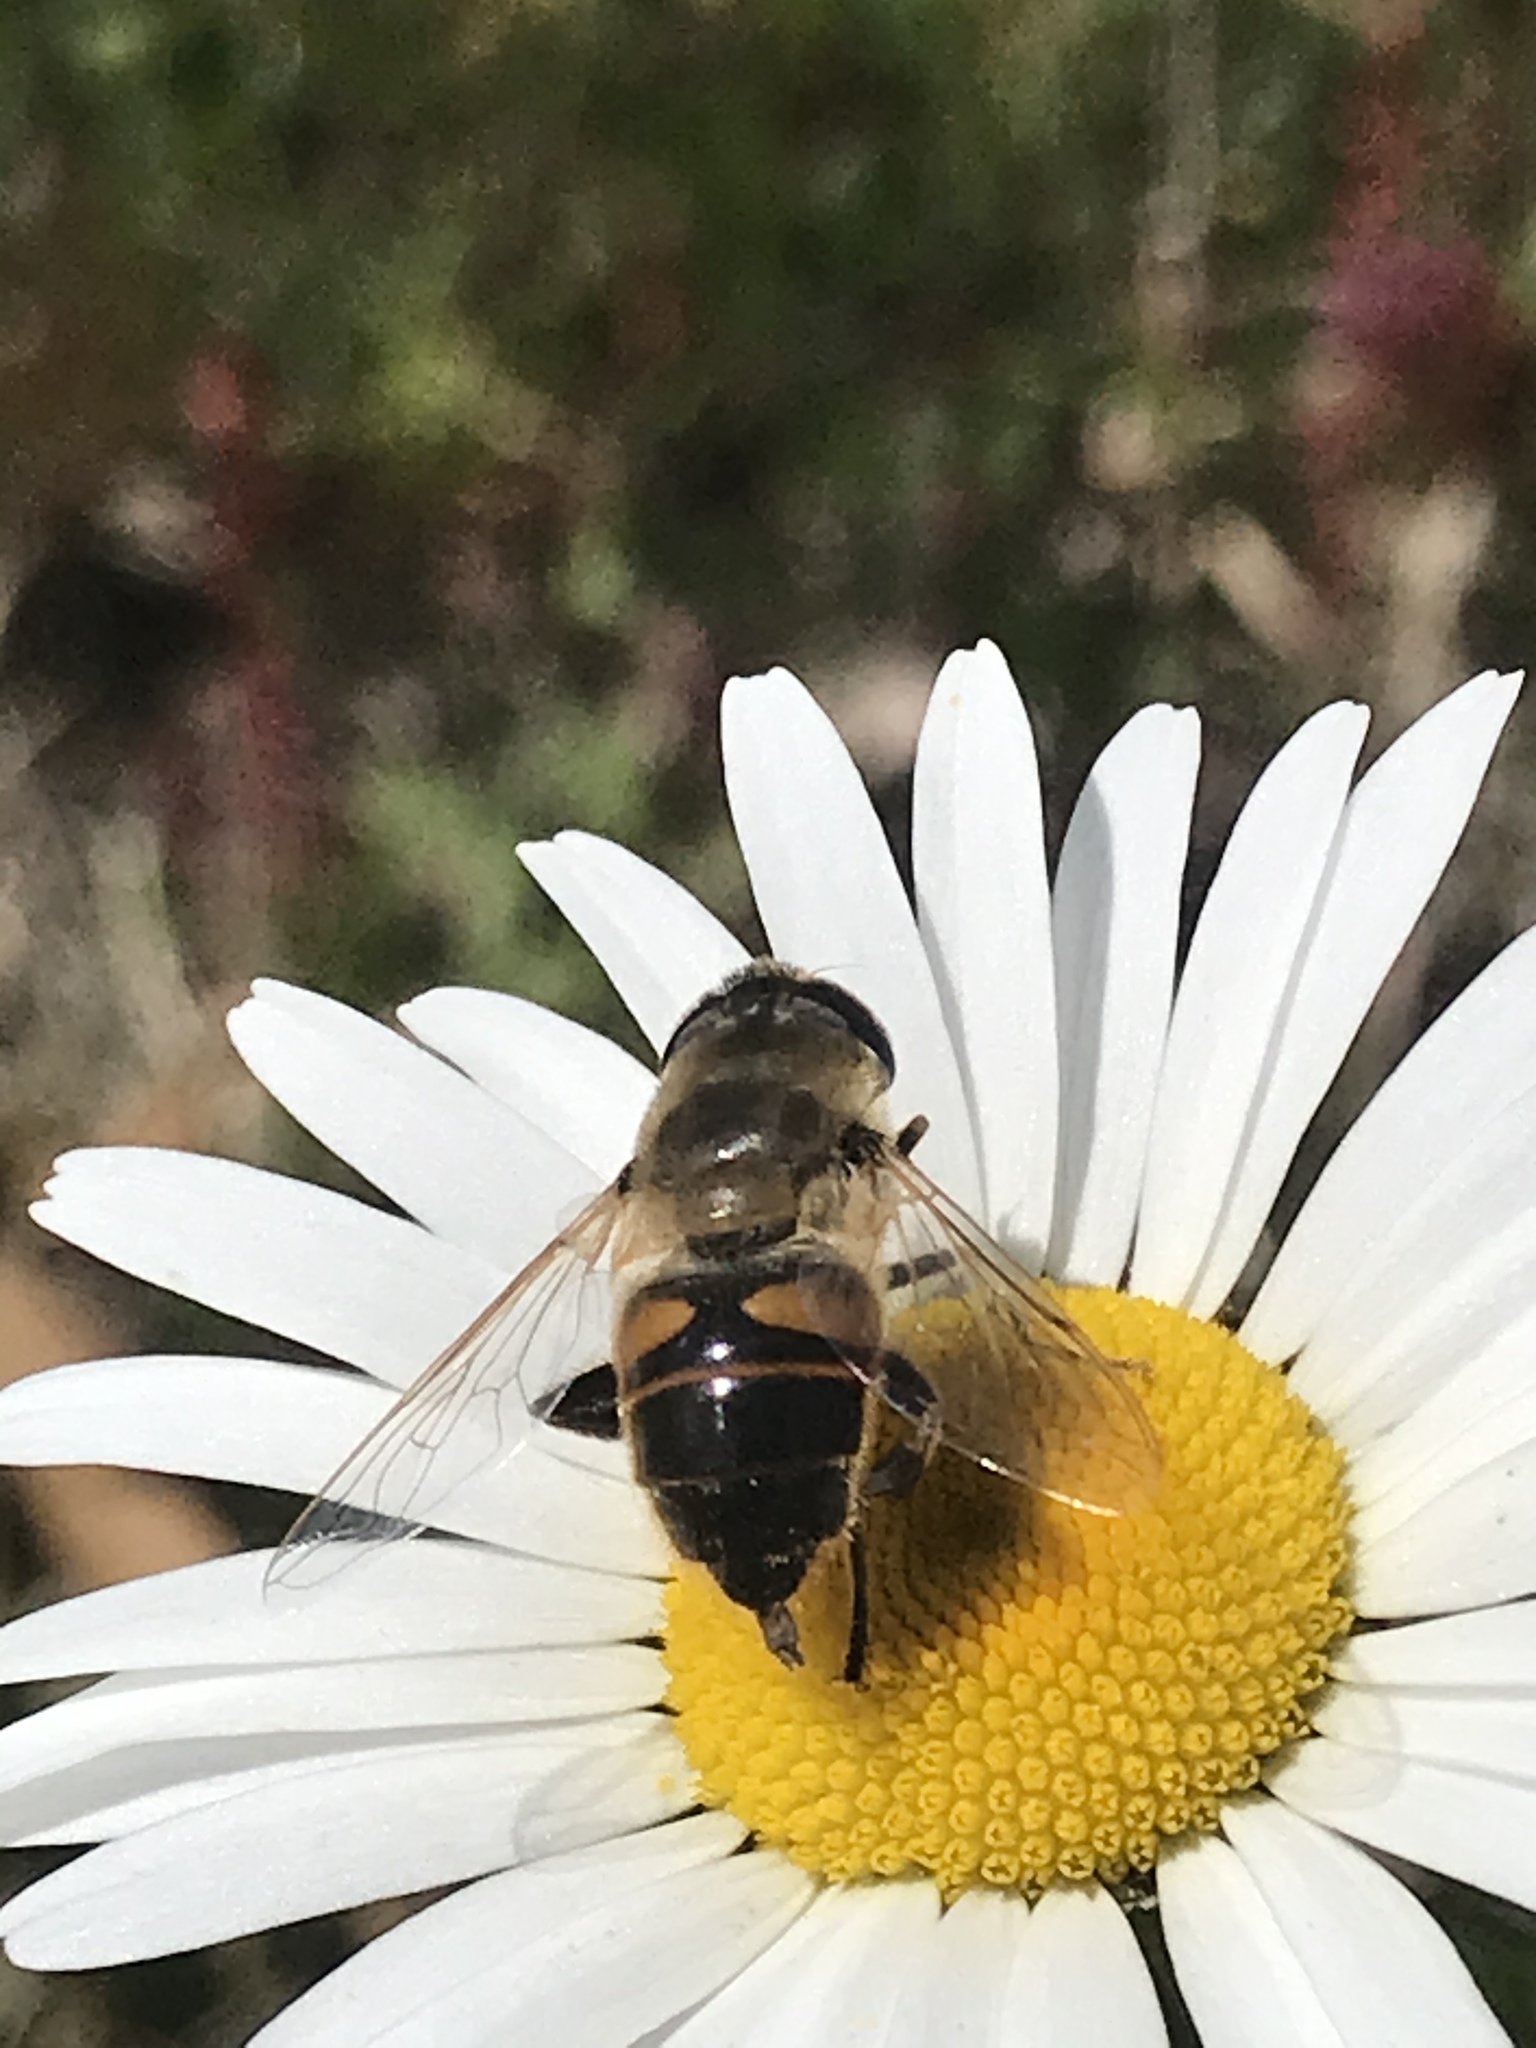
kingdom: Animalia
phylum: Arthropoda
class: Insecta
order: Diptera
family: Syrphidae
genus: Eristalis
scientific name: Eristalis tenax
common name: Drone fly
